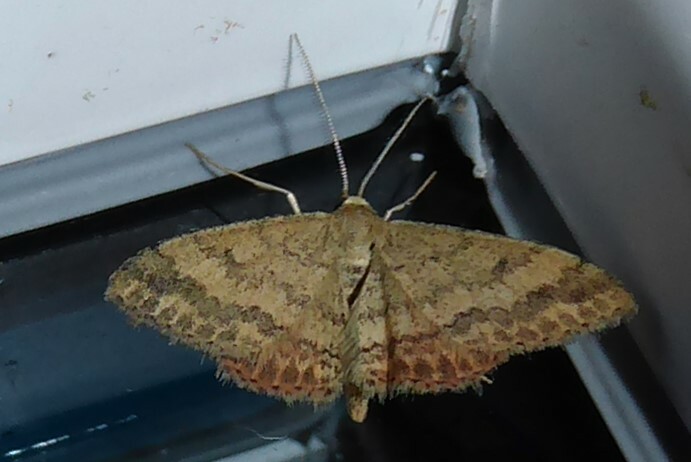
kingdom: Animalia
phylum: Arthropoda
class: Insecta
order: Lepidoptera
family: Geometridae
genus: Scopula
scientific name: Scopula rubraria
